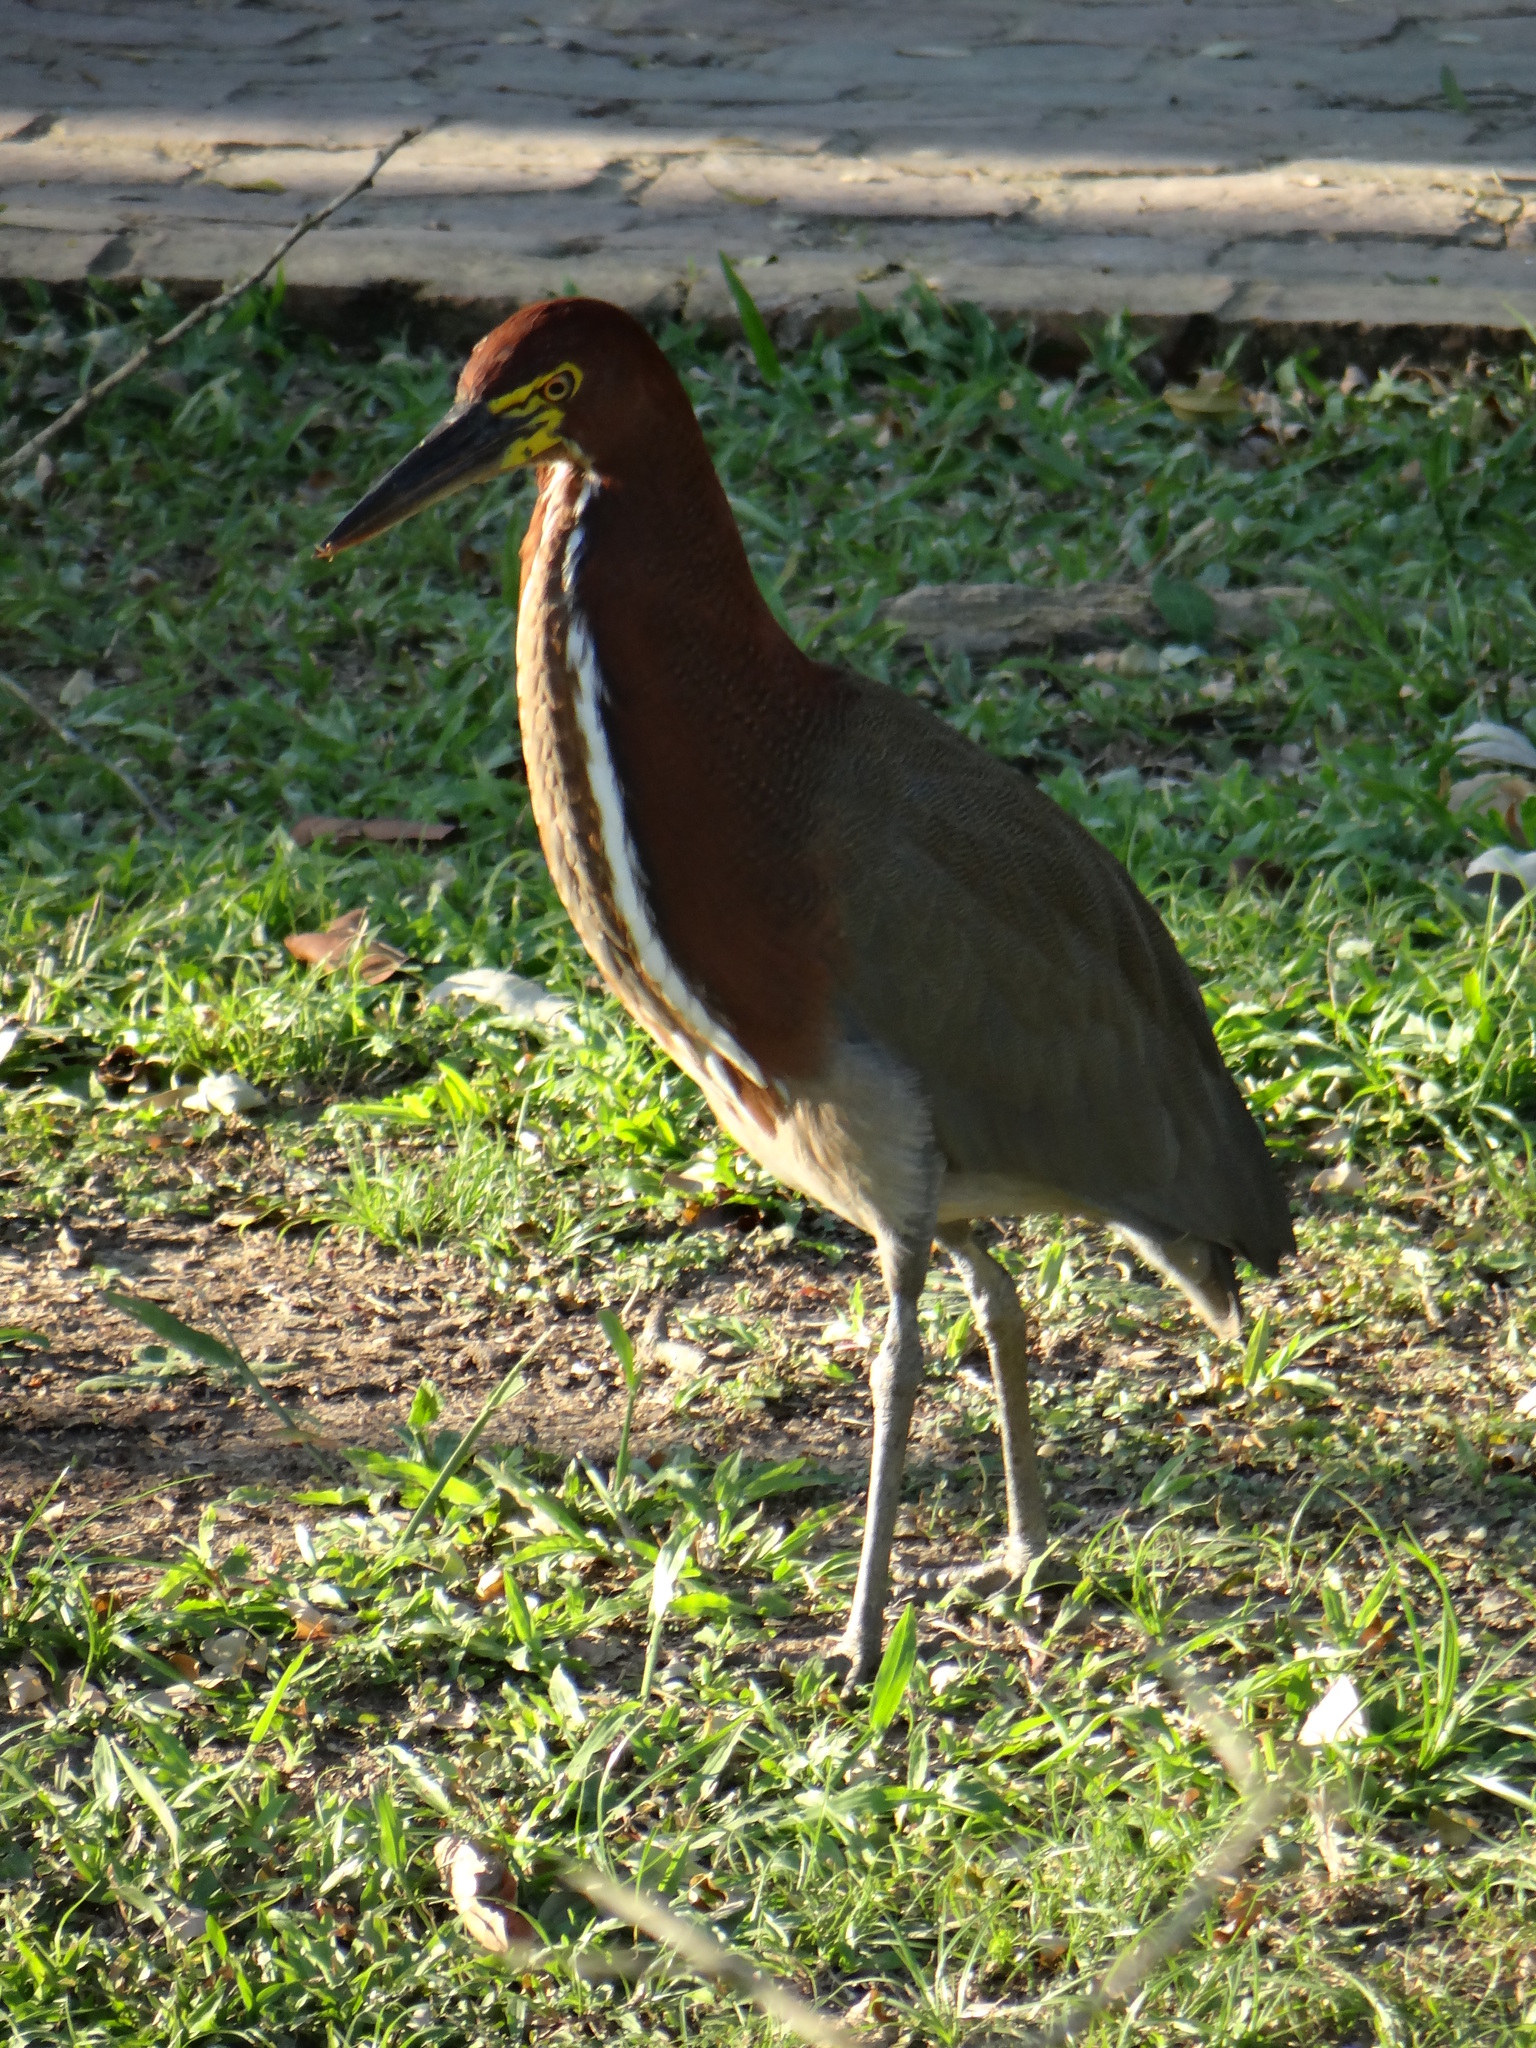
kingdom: Animalia
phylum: Chordata
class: Aves
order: Pelecaniformes
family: Ardeidae
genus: Tigrisoma
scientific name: Tigrisoma lineatum
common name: Rufescent tiger-heron
